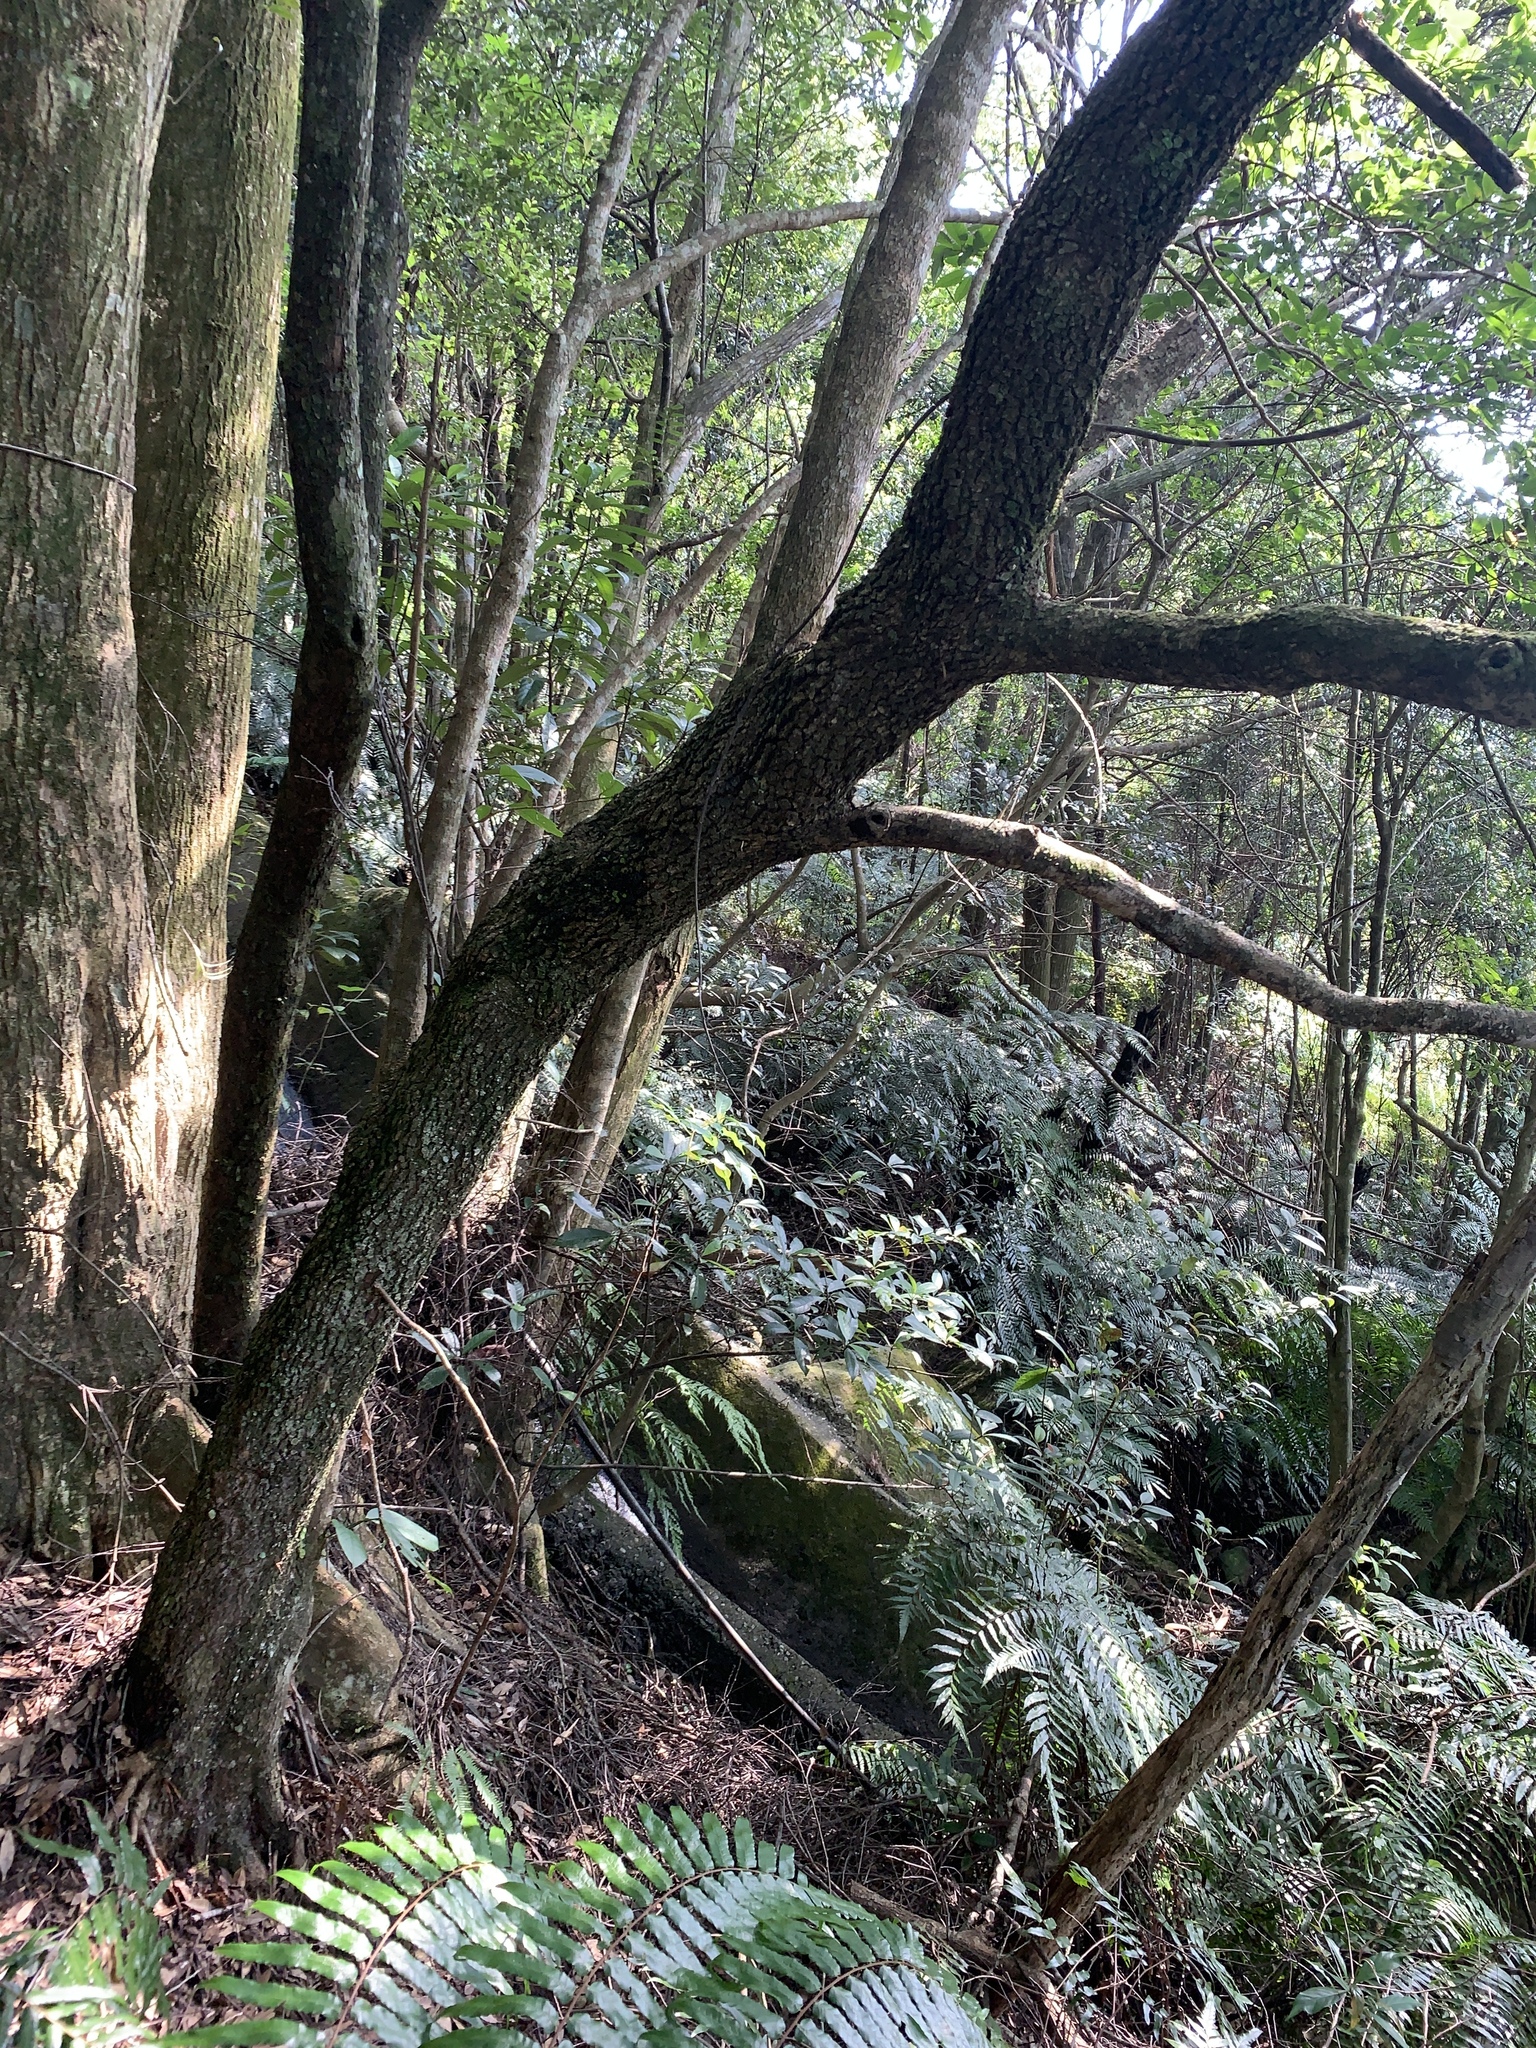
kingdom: Plantae
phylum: Tracheophyta
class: Magnoliopsida
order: Malpighiales
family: Phyllanthaceae
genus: Bridelia
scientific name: Bridelia balansae
